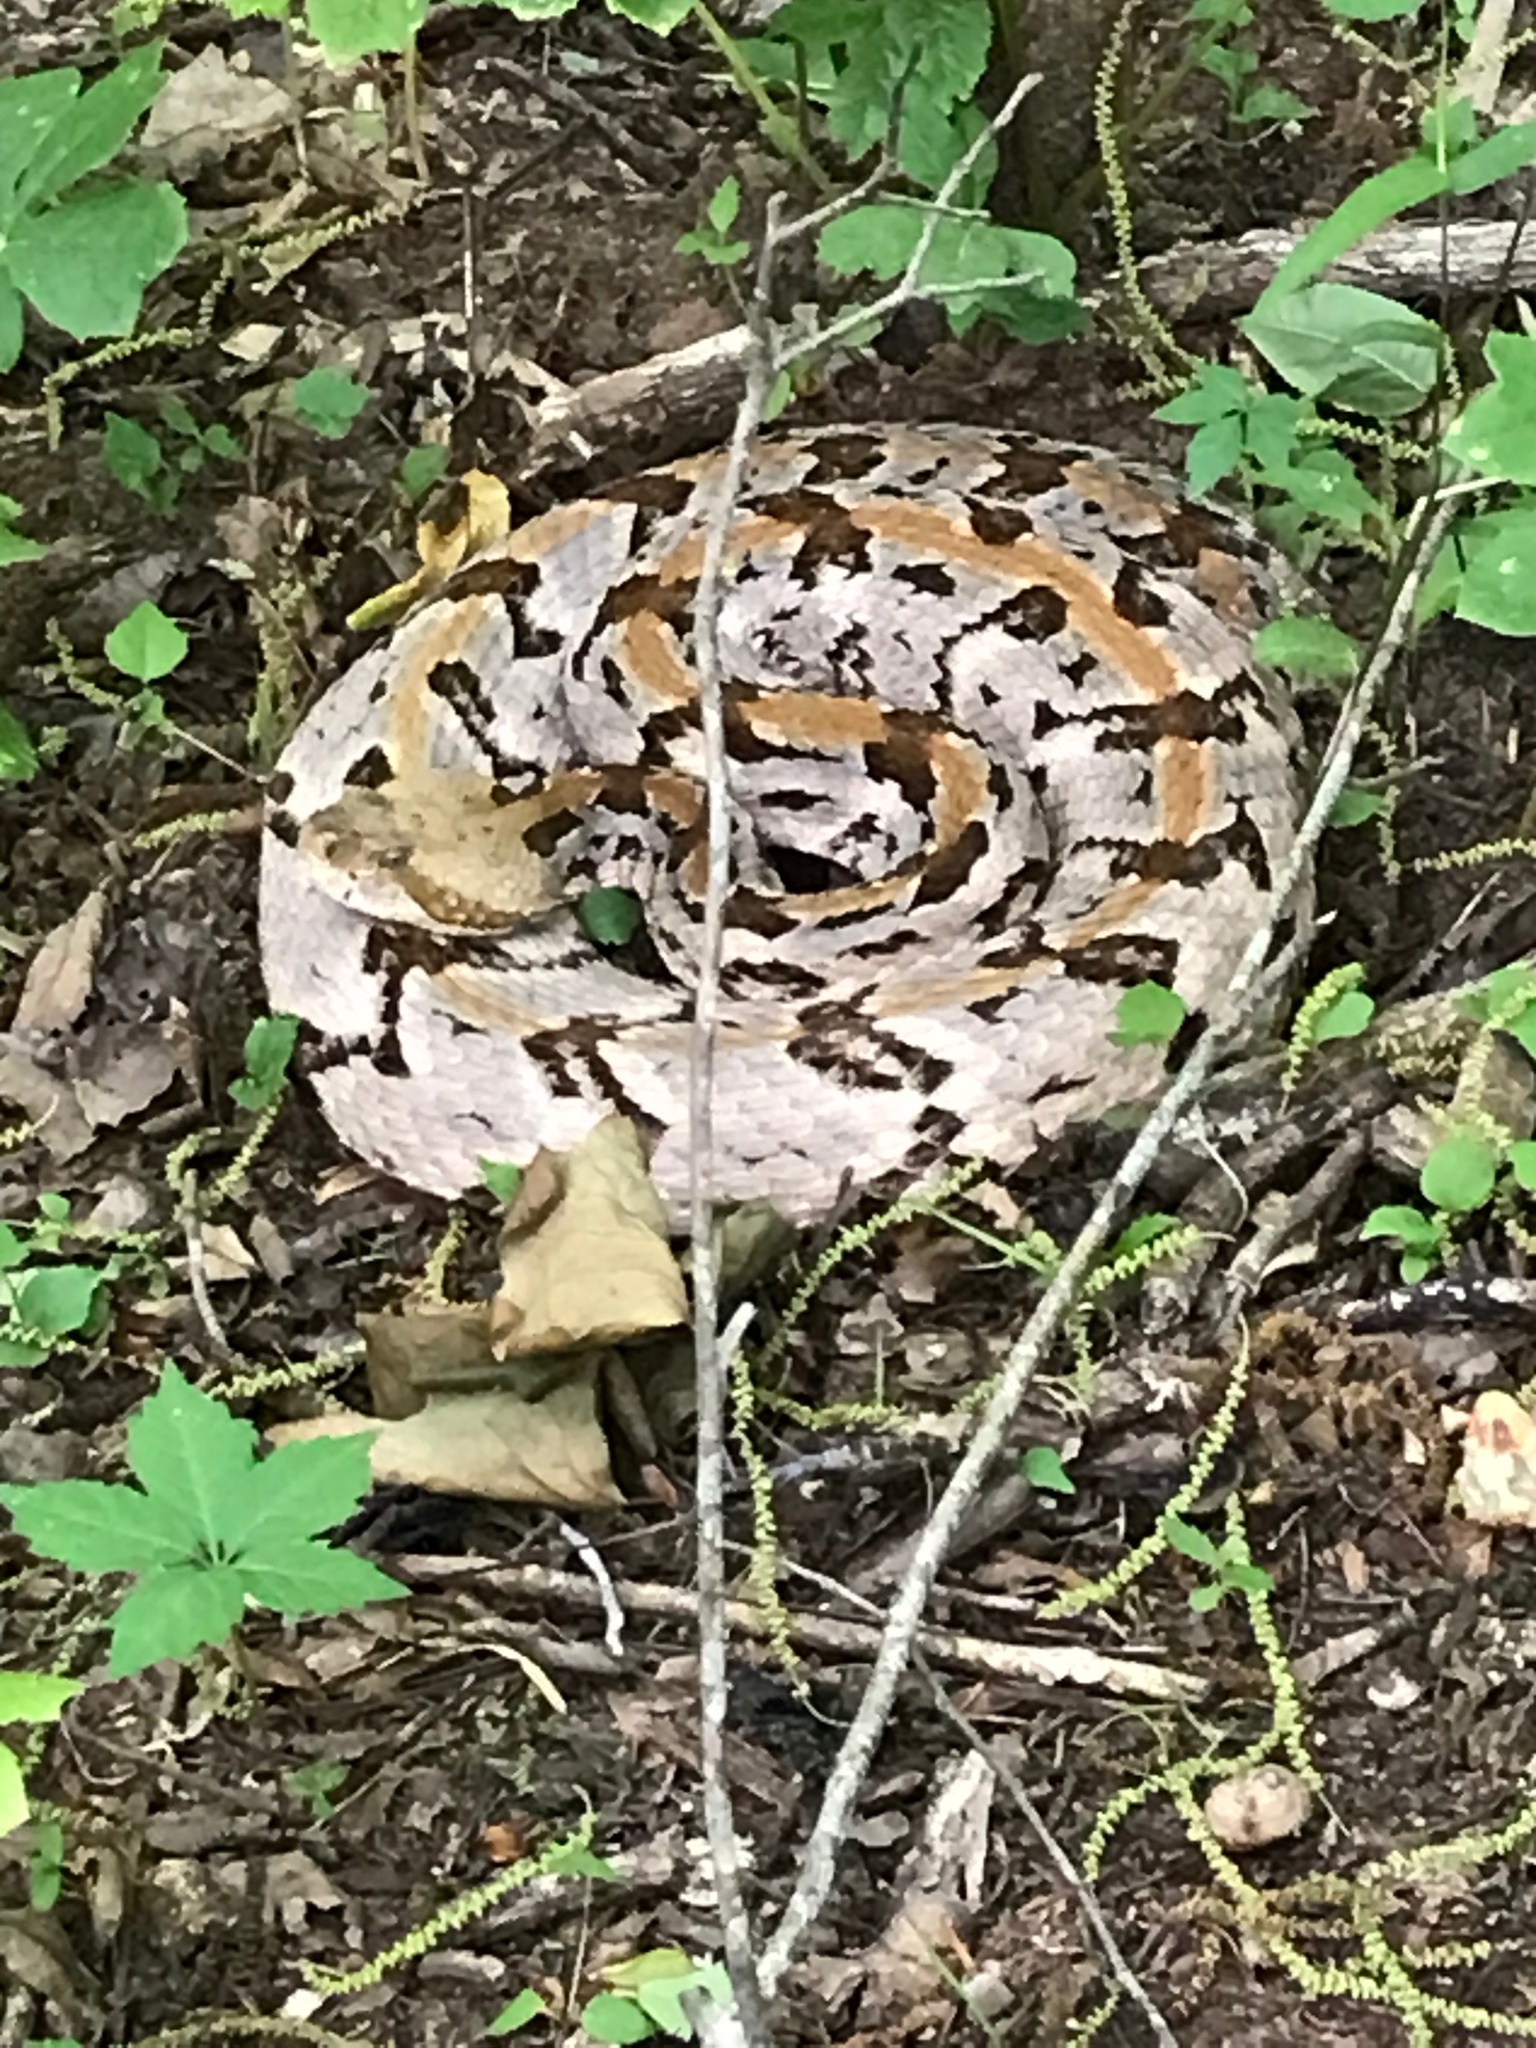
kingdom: Animalia
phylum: Chordata
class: Squamata
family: Viperidae
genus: Crotalus
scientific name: Crotalus horridus
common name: Timber rattlesnake
